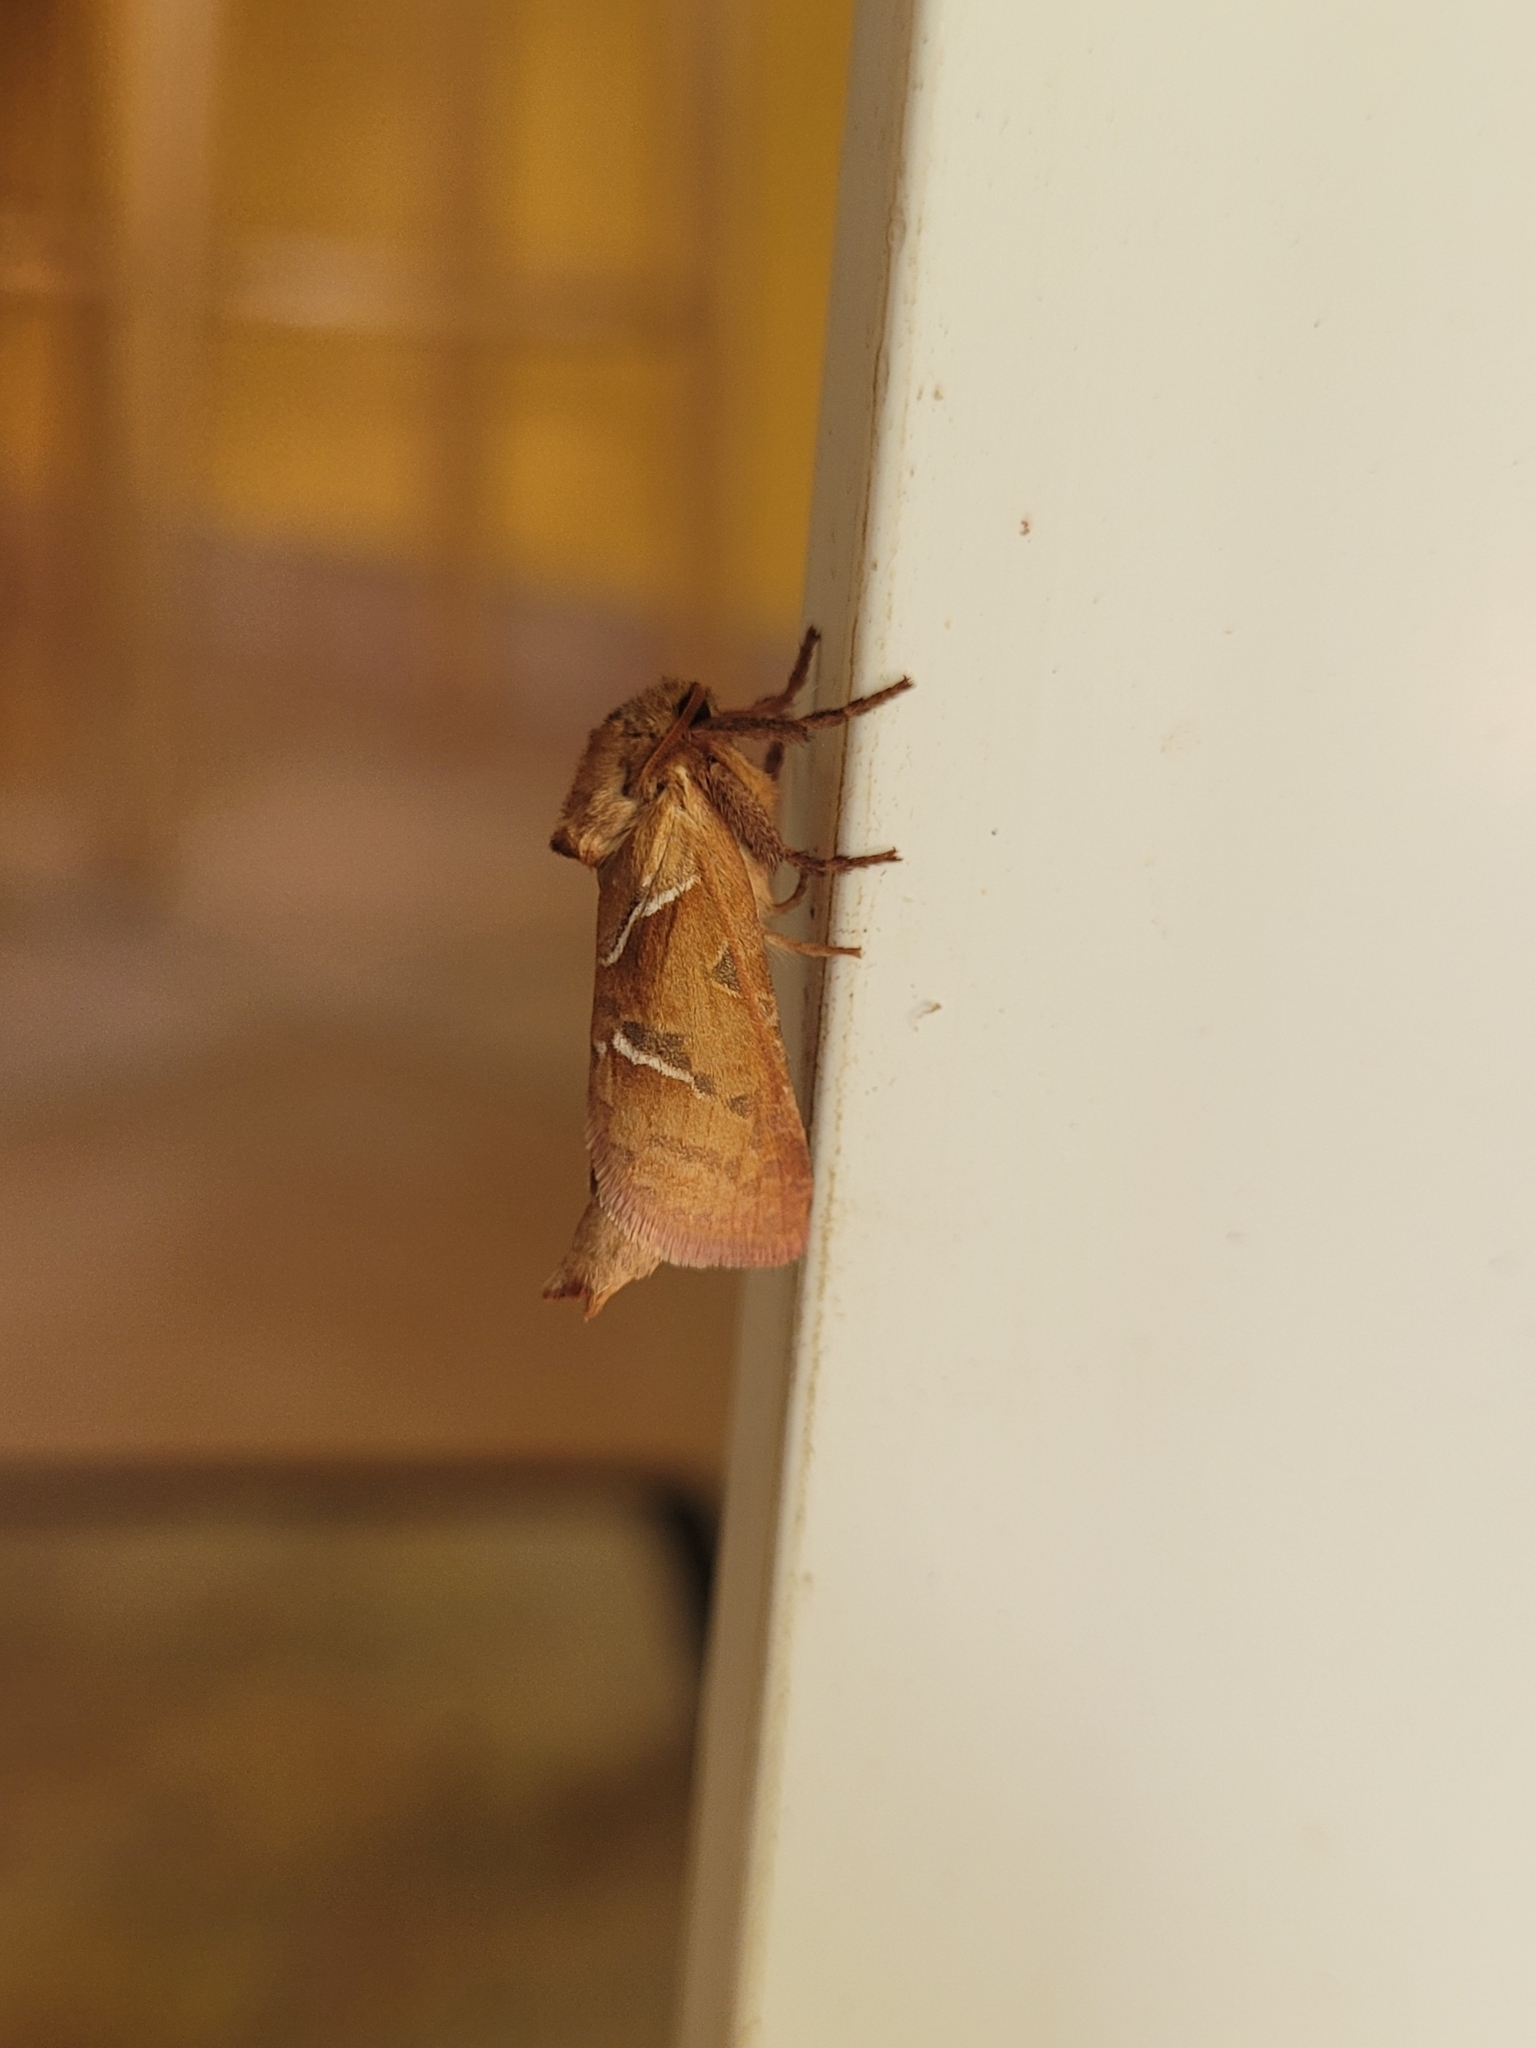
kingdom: Animalia
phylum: Arthropoda
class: Insecta
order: Lepidoptera
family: Hepialidae
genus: Triodia
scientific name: Triodia sylvina
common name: Orange swift
